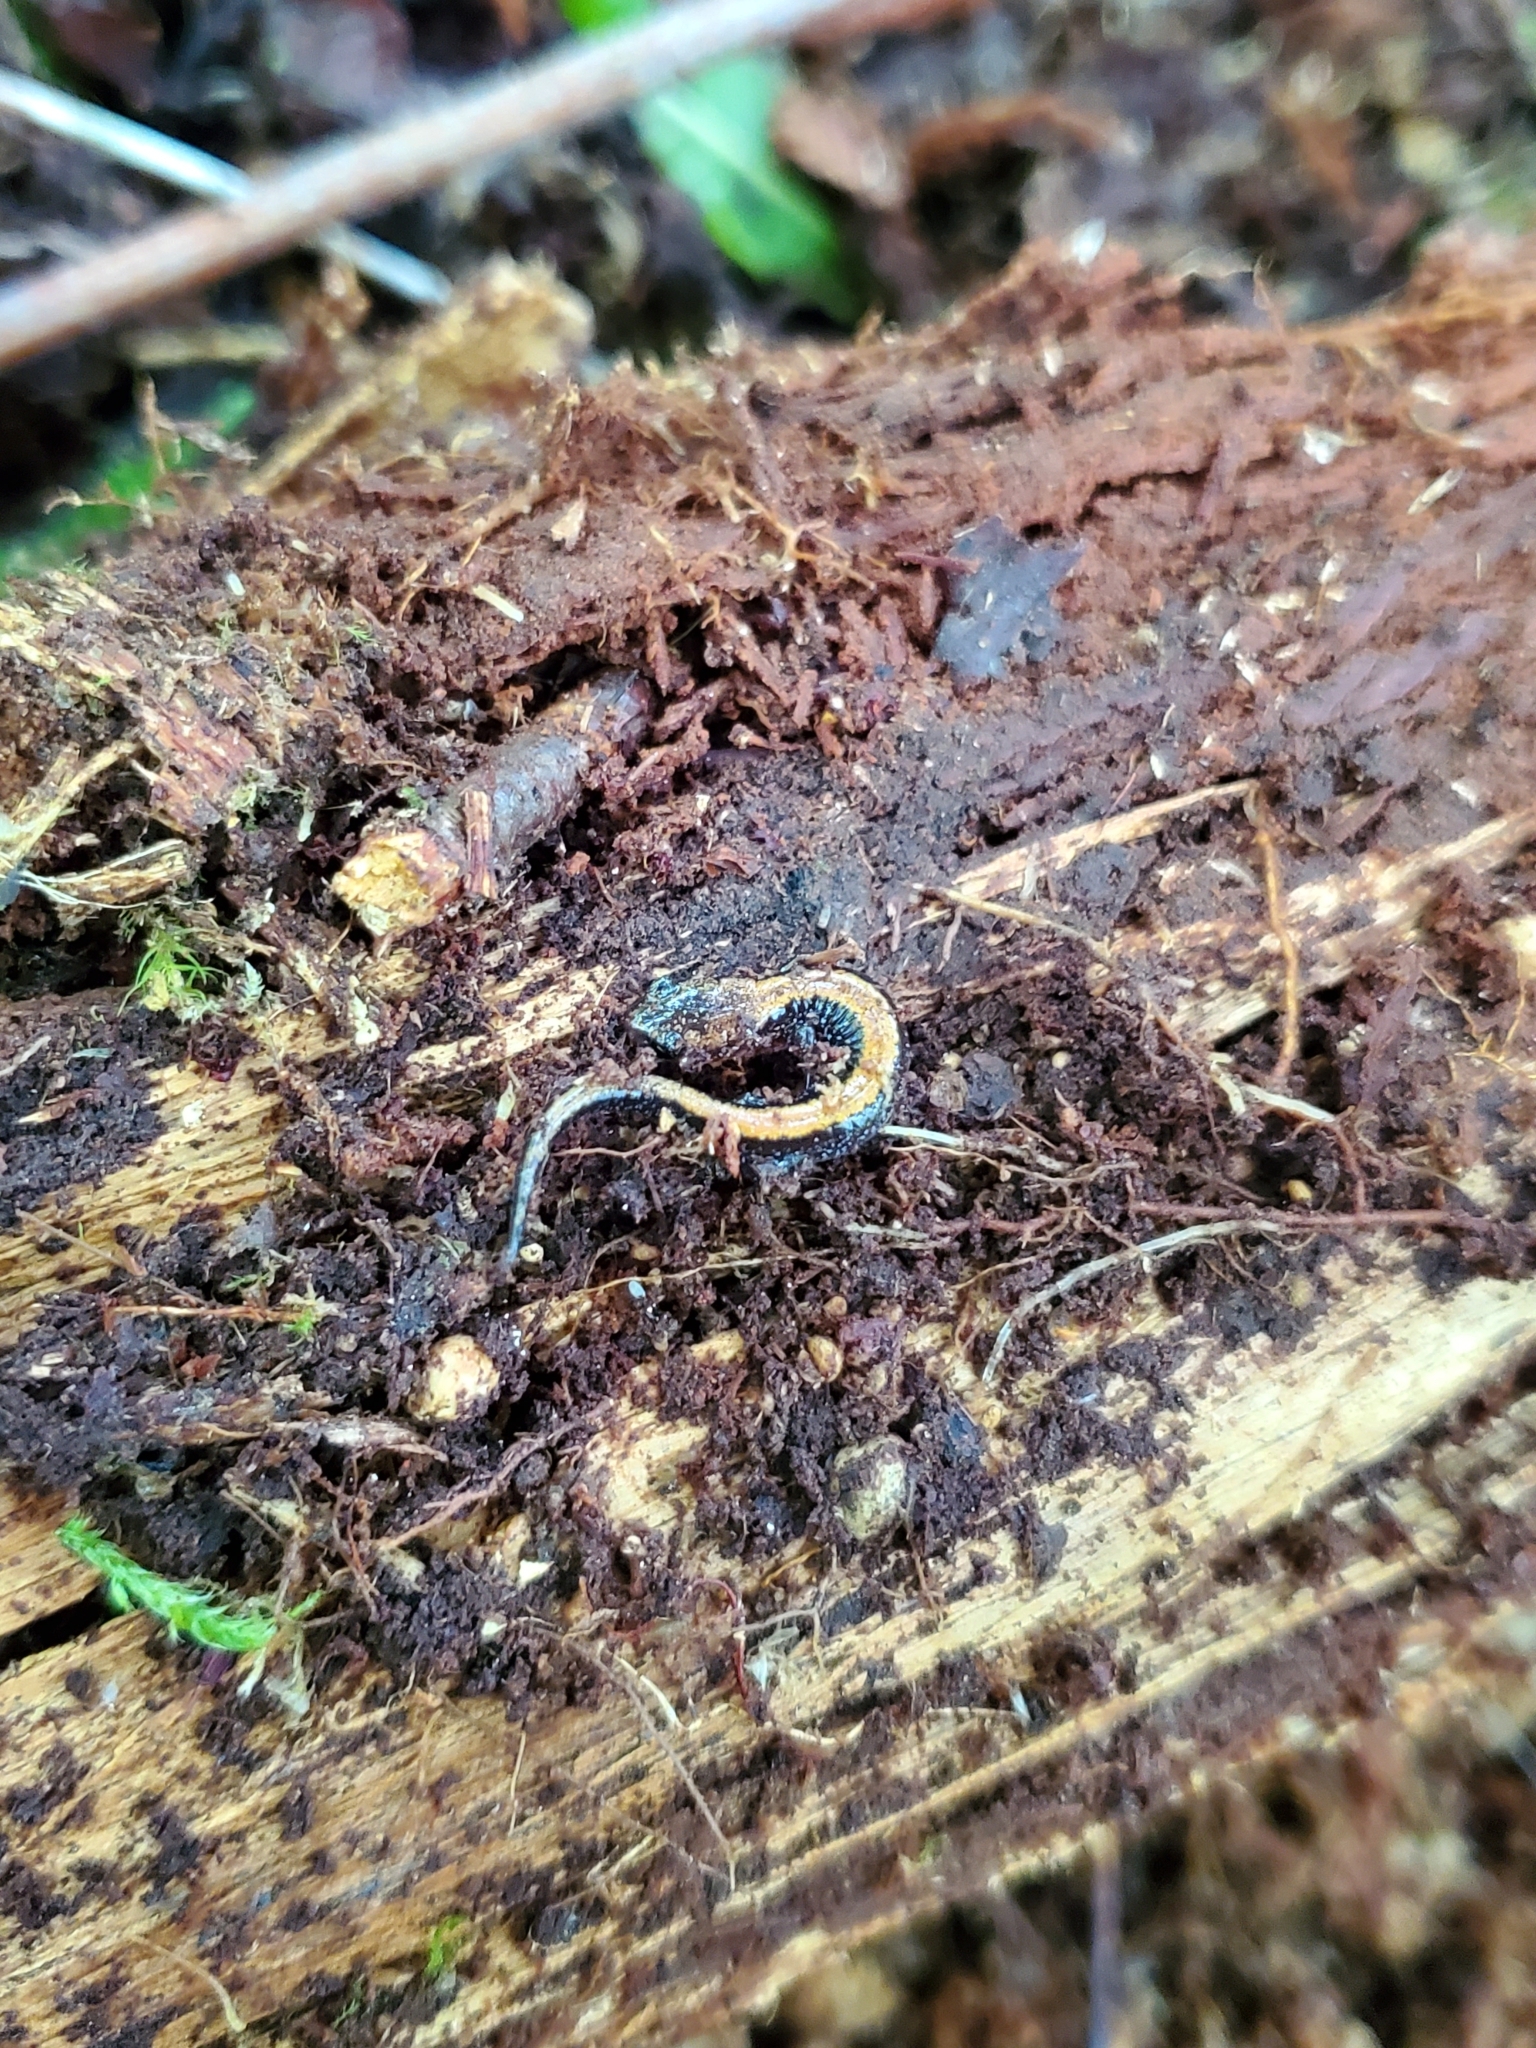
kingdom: Animalia
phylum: Chordata
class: Amphibia
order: Caudata
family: Plethodontidae
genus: Plethodon
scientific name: Plethodon cinereus
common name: Redback salamander
